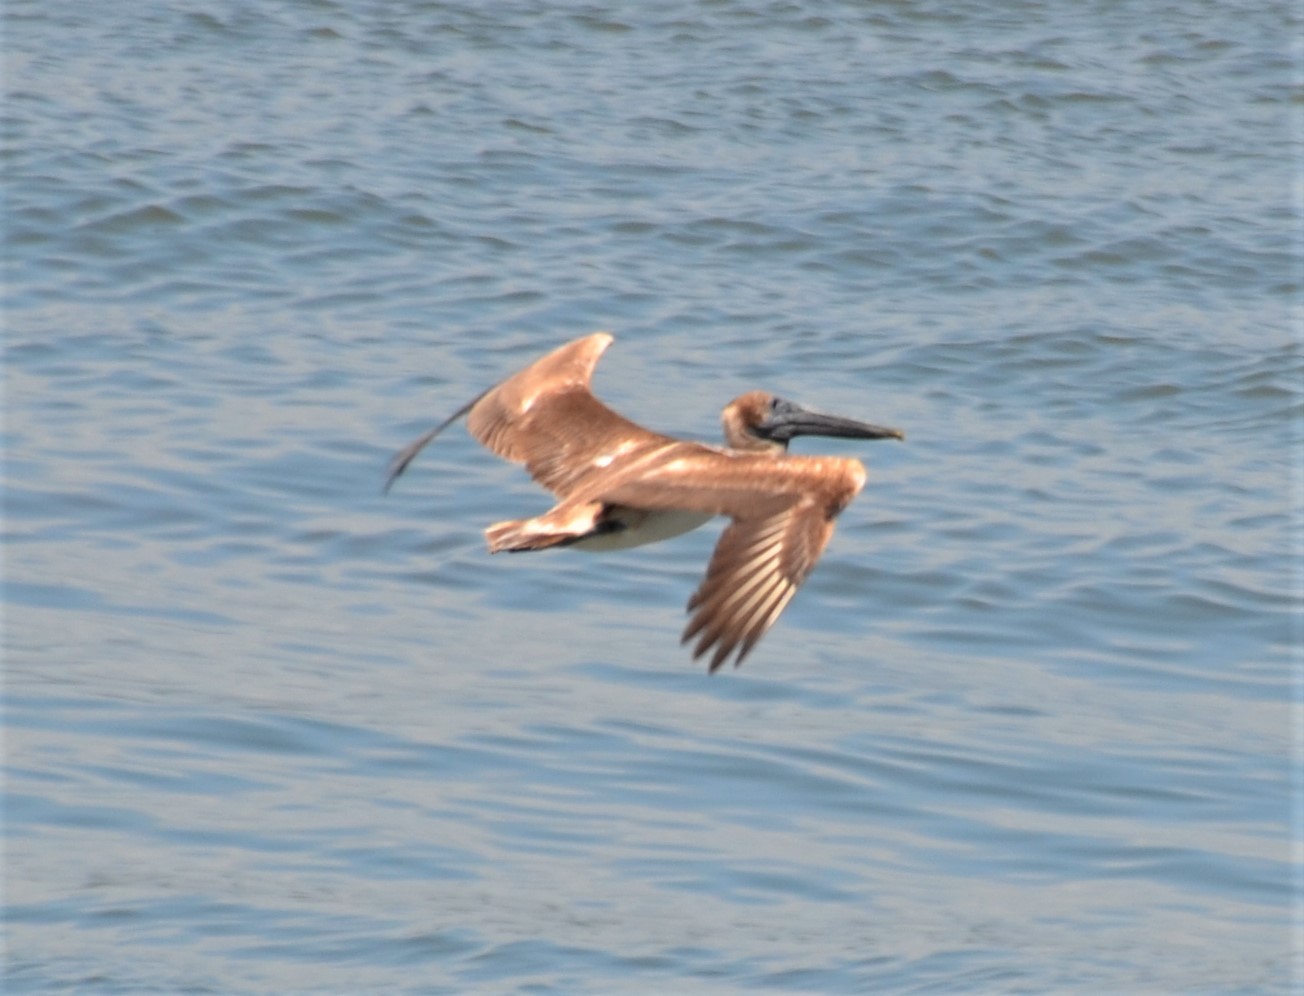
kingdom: Animalia
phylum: Chordata
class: Aves
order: Pelecaniformes
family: Pelecanidae
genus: Pelecanus
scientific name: Pelecanus occidentalis
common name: Brown pelican
